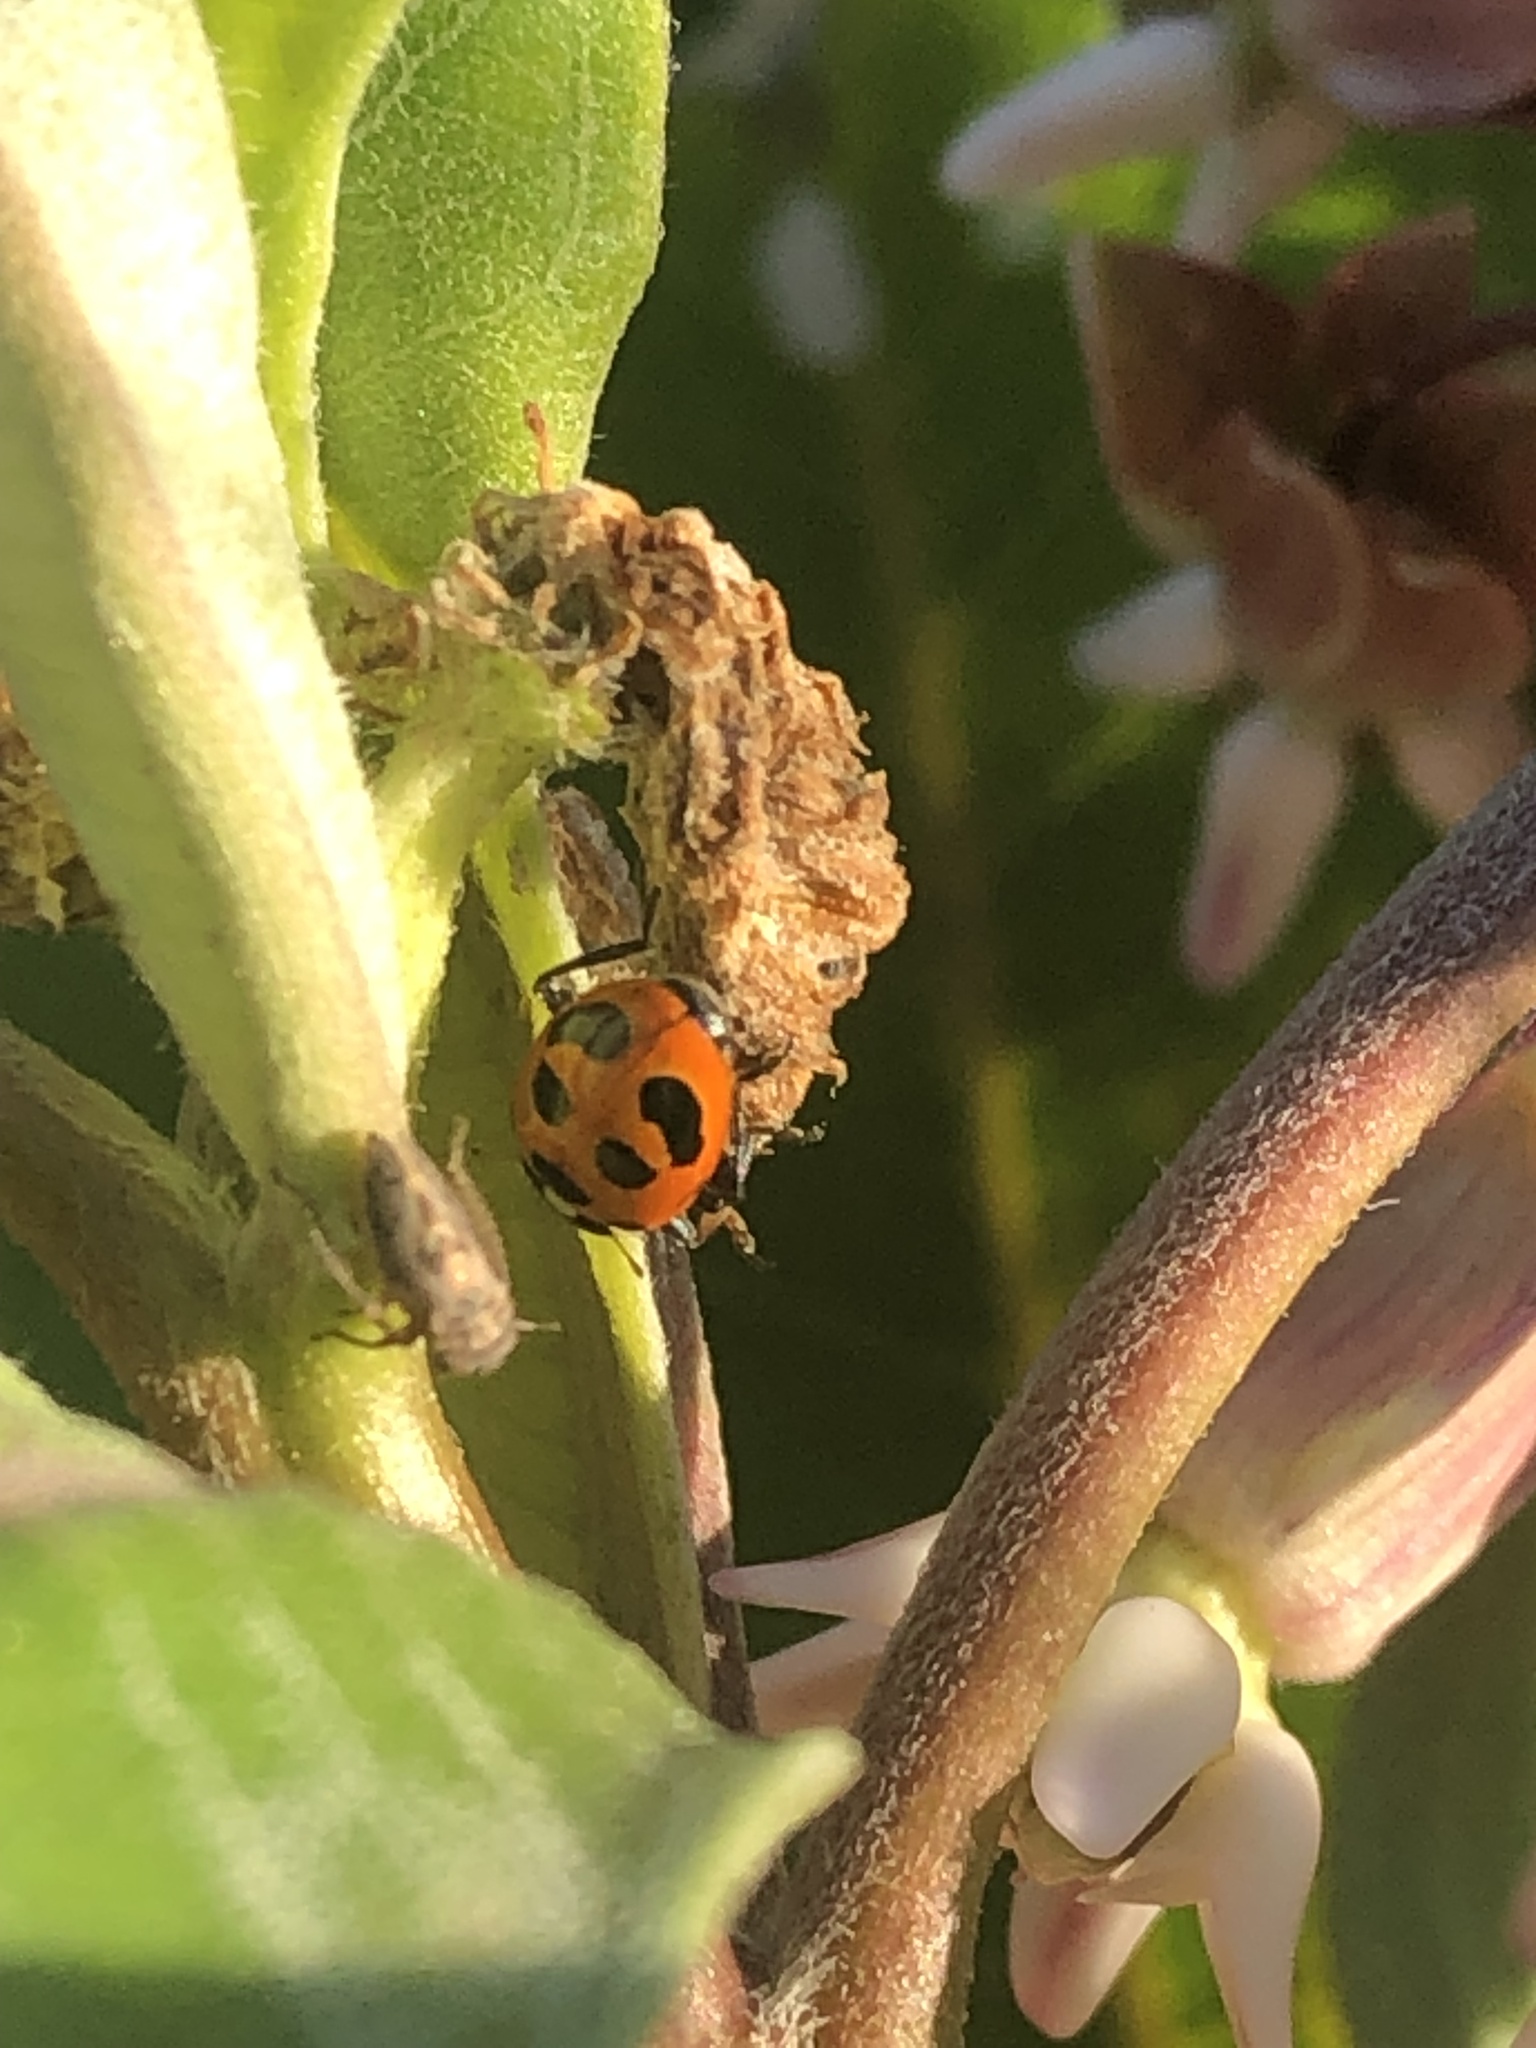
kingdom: Animalia
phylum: Arthropoda
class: Insecta
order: Coleoptera
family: Coccinellidae
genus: Hippodamia
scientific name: Hippodamia parenthesis
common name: Parenthesis lady beetle
